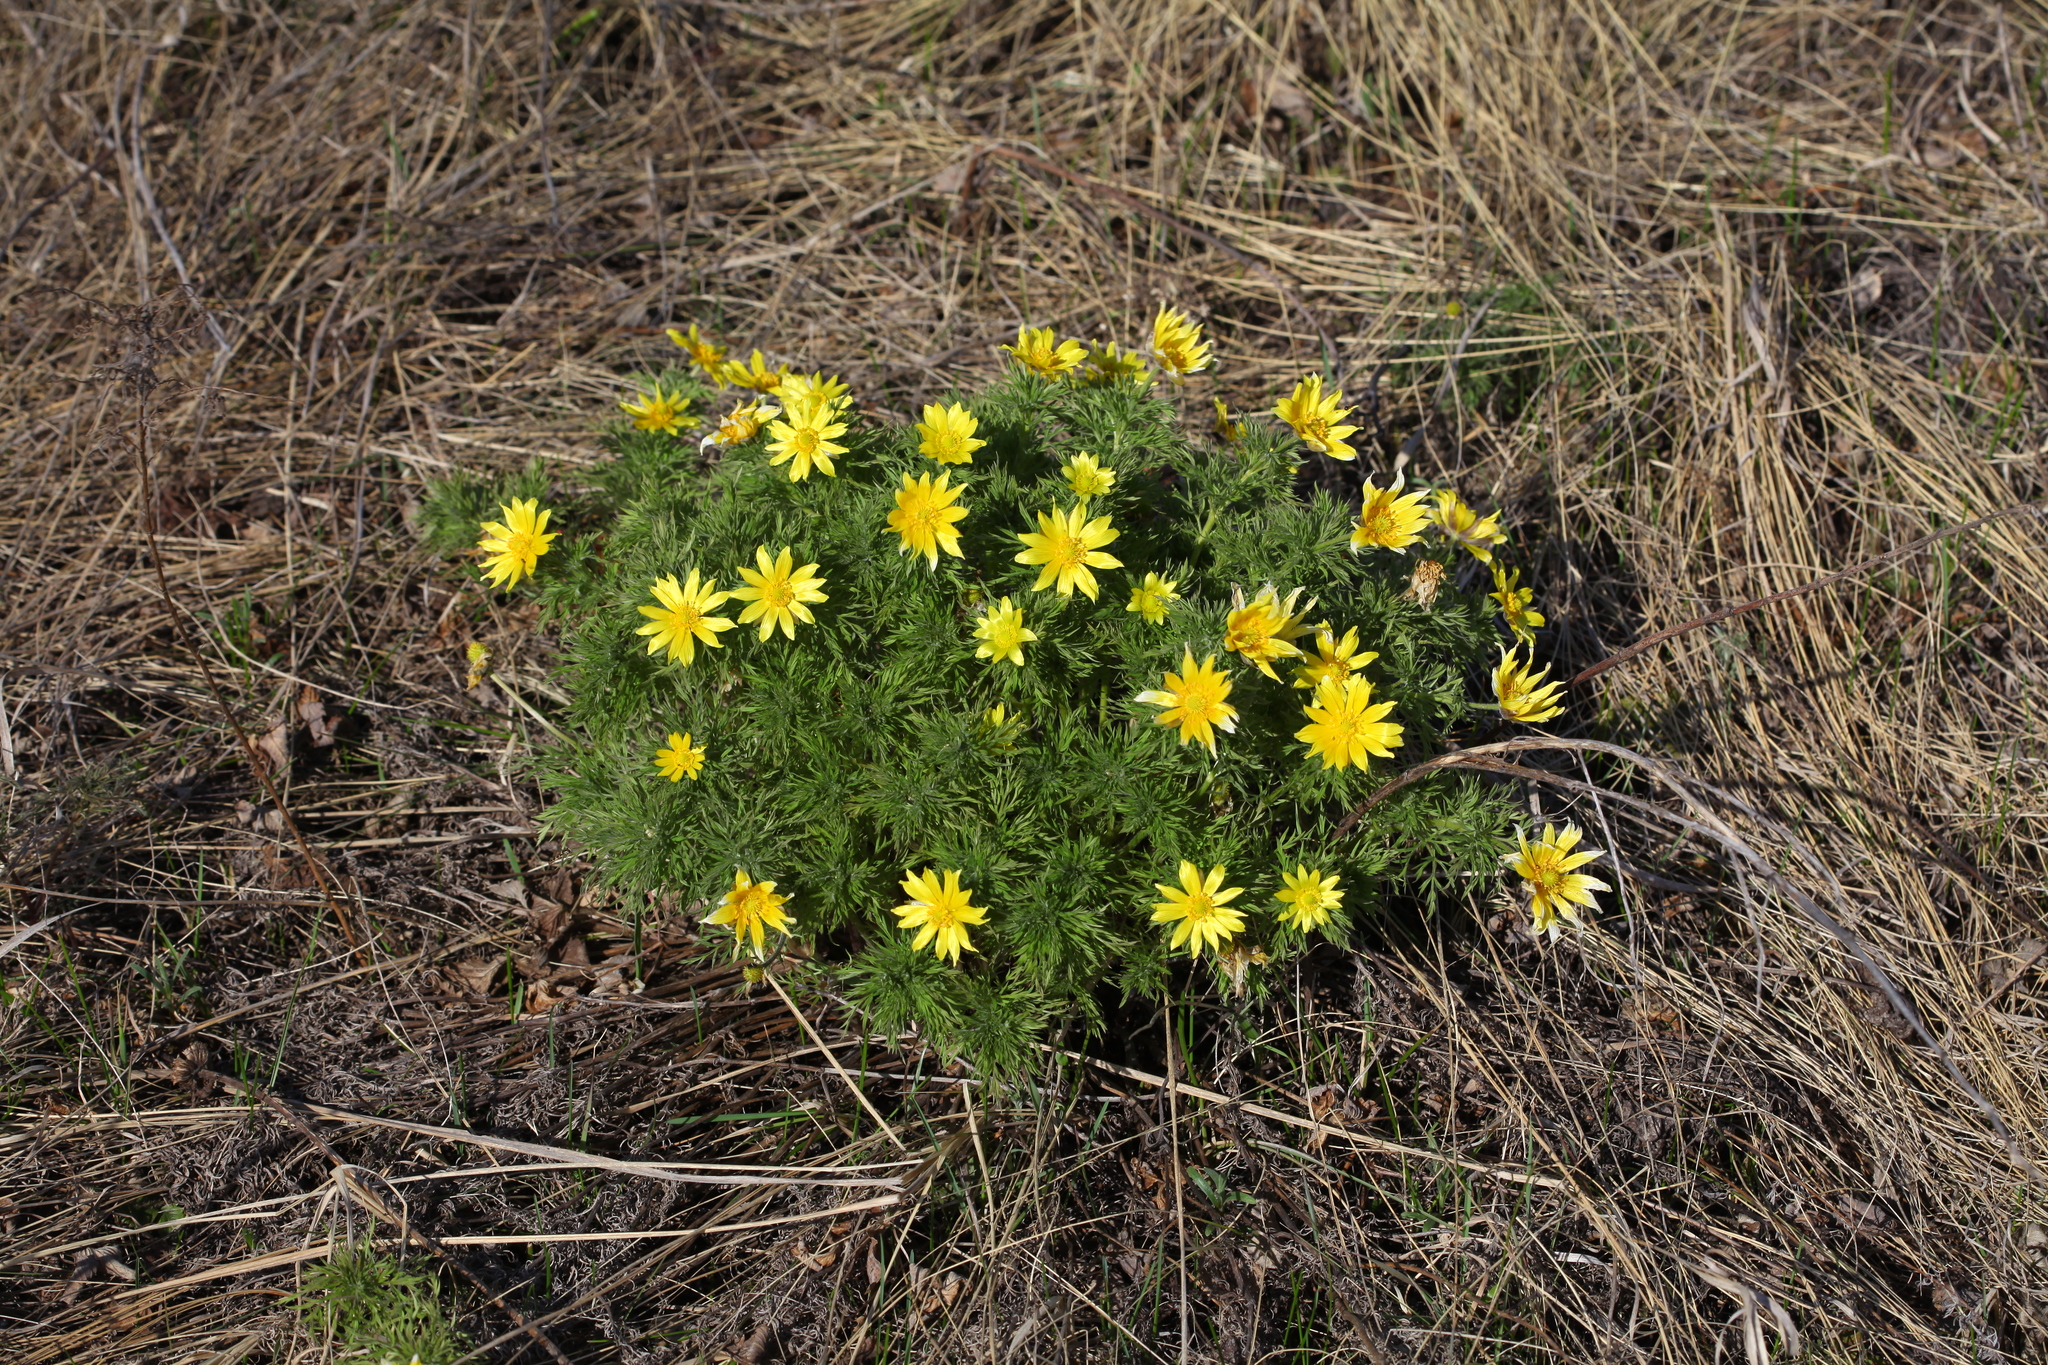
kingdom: Plantae
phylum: Tracheophyta
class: Magnoliopsida
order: Ranunculales
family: Ranunculaceae
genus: Adonis
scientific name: Adonis vernalis
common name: Yellow pheasants-eye
